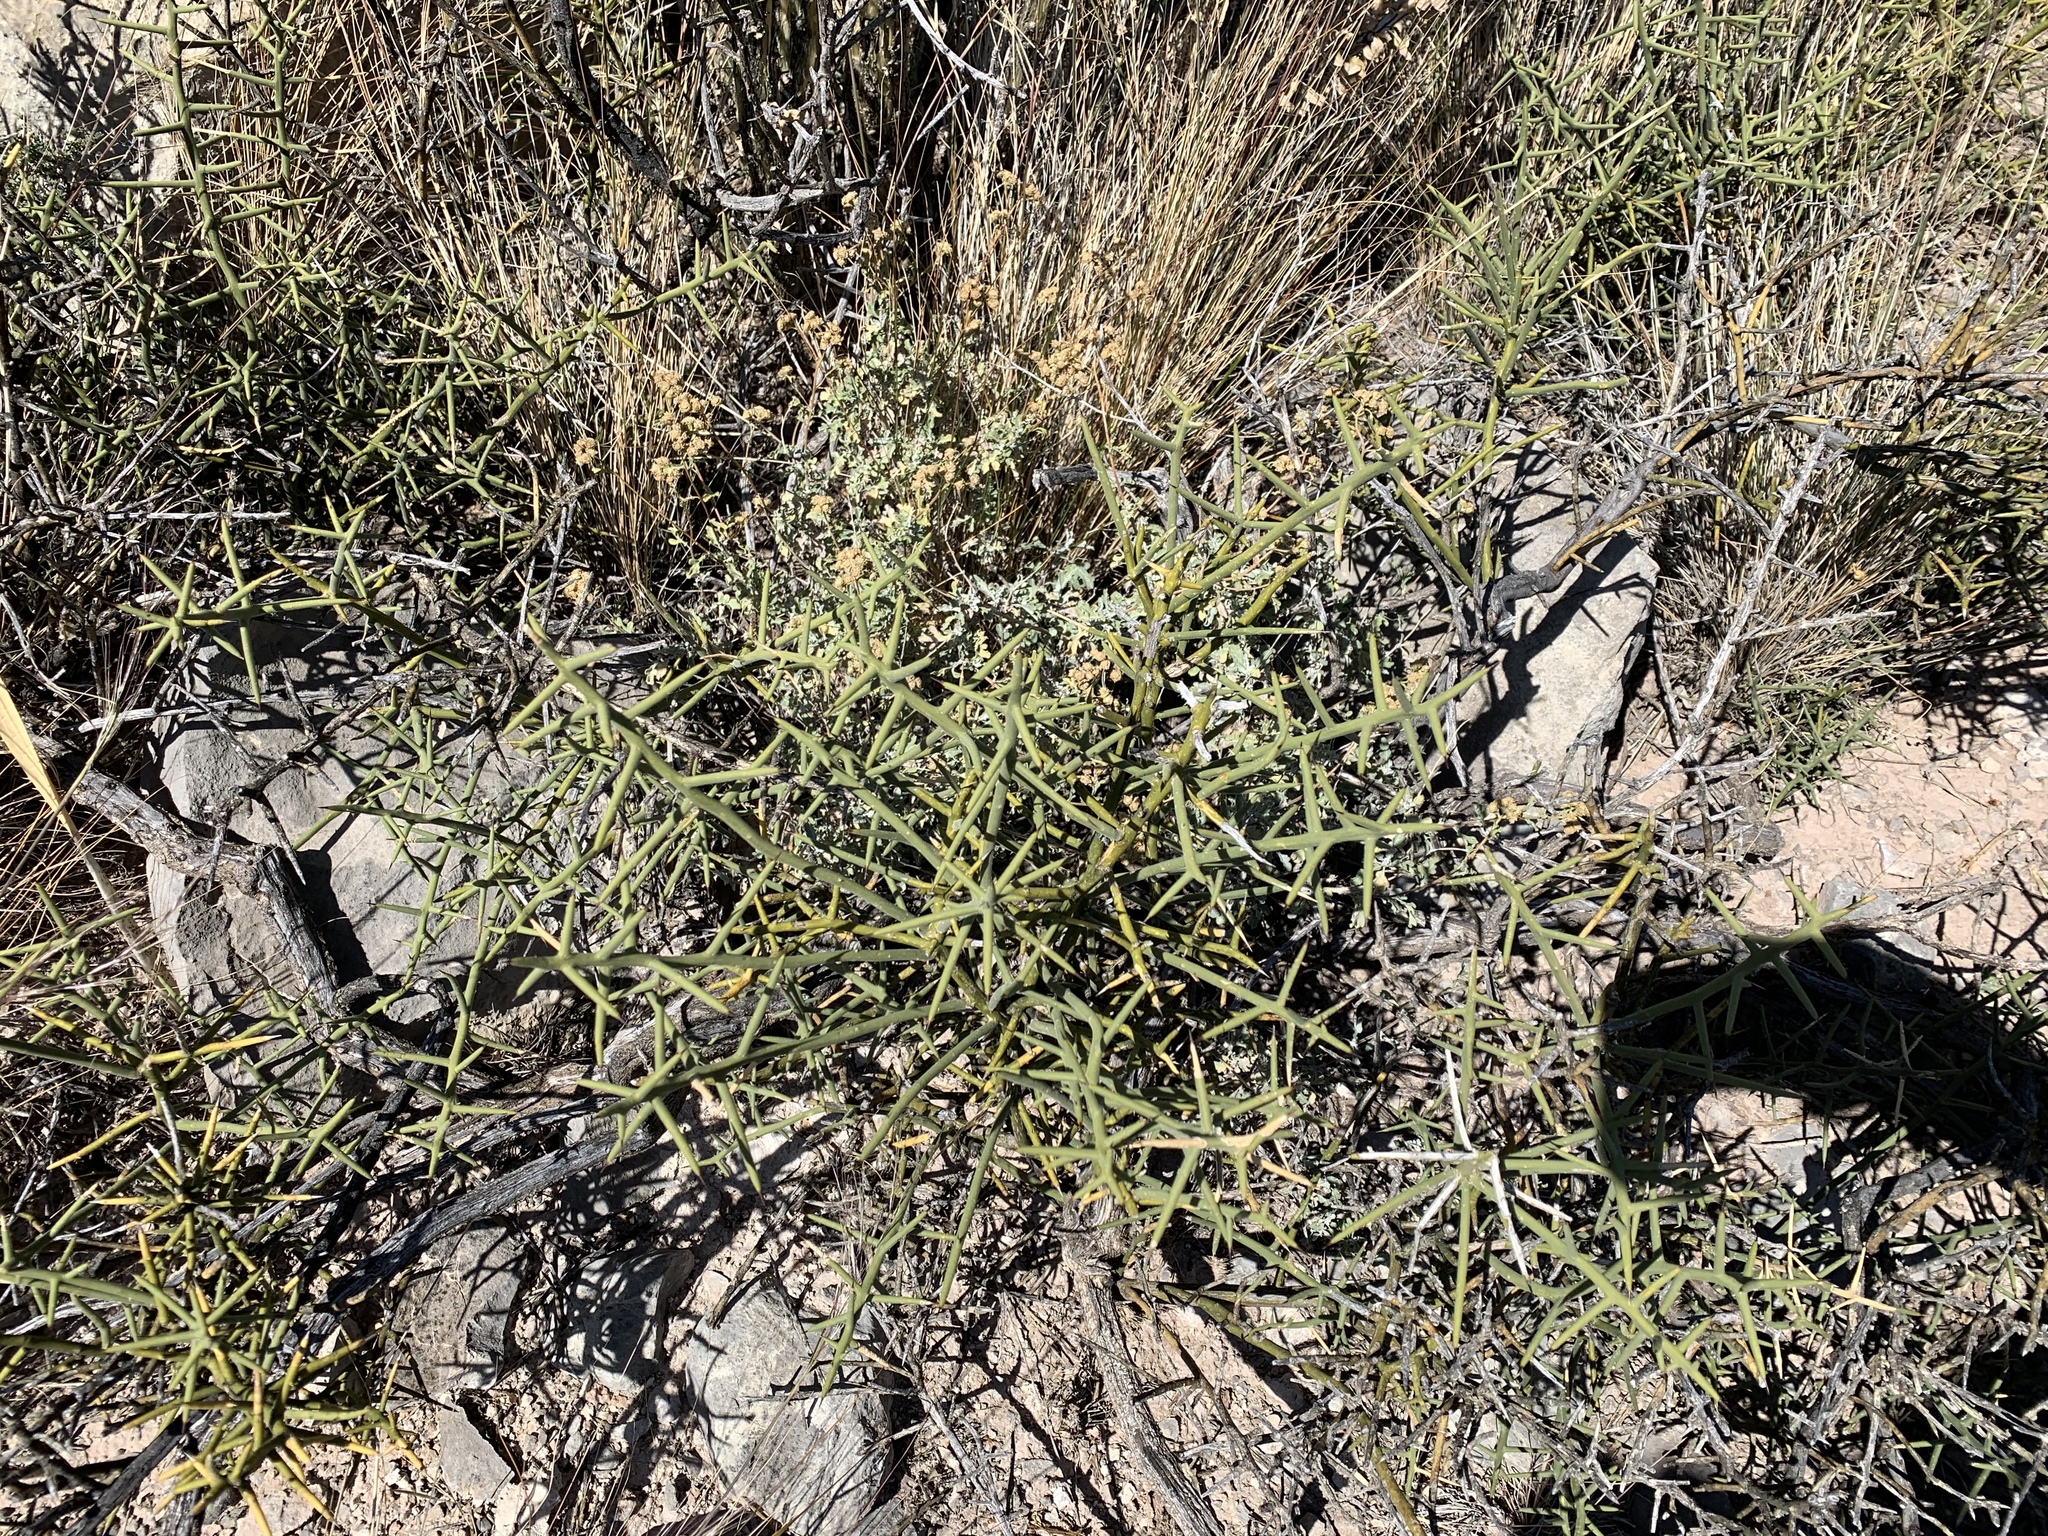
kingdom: Plantae
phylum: Tracheophyta
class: Magnoliopsida
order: Brassicales
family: Koeberliniaceae
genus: Koeberlinia
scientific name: Koeberlinia spinosa
